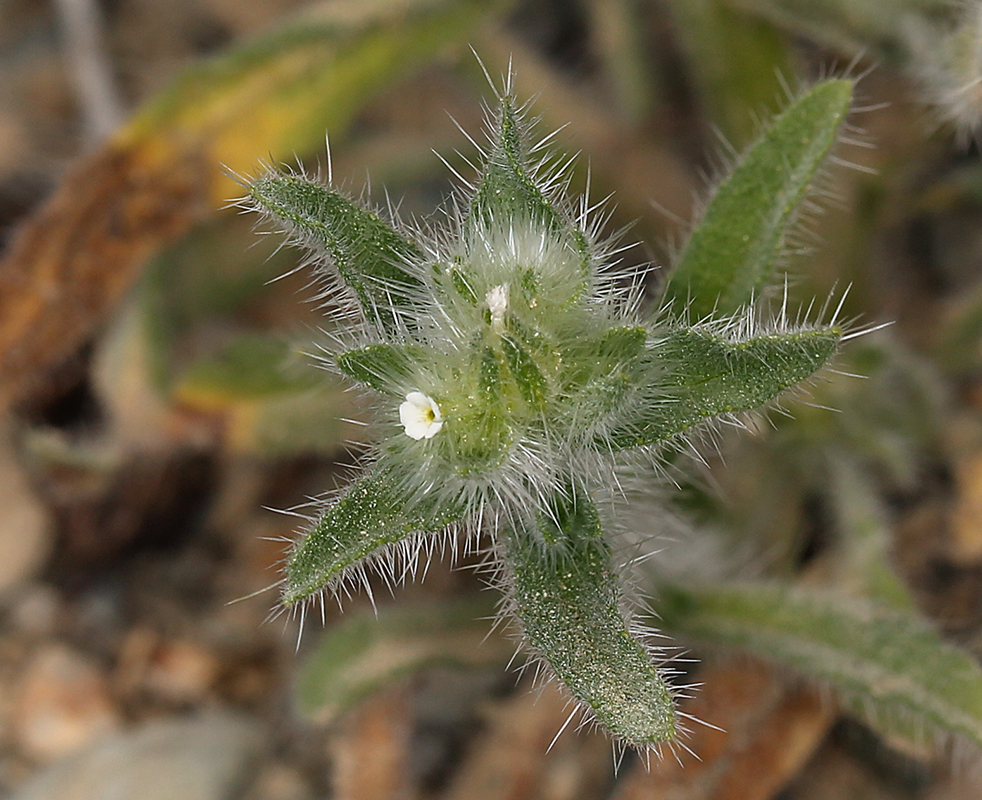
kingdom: Plantae
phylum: Tracheophyta
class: Magnoliopsida
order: Boraginales
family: Boraginaceae
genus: Simpsonanthus
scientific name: Simpsonanthus jonesii
